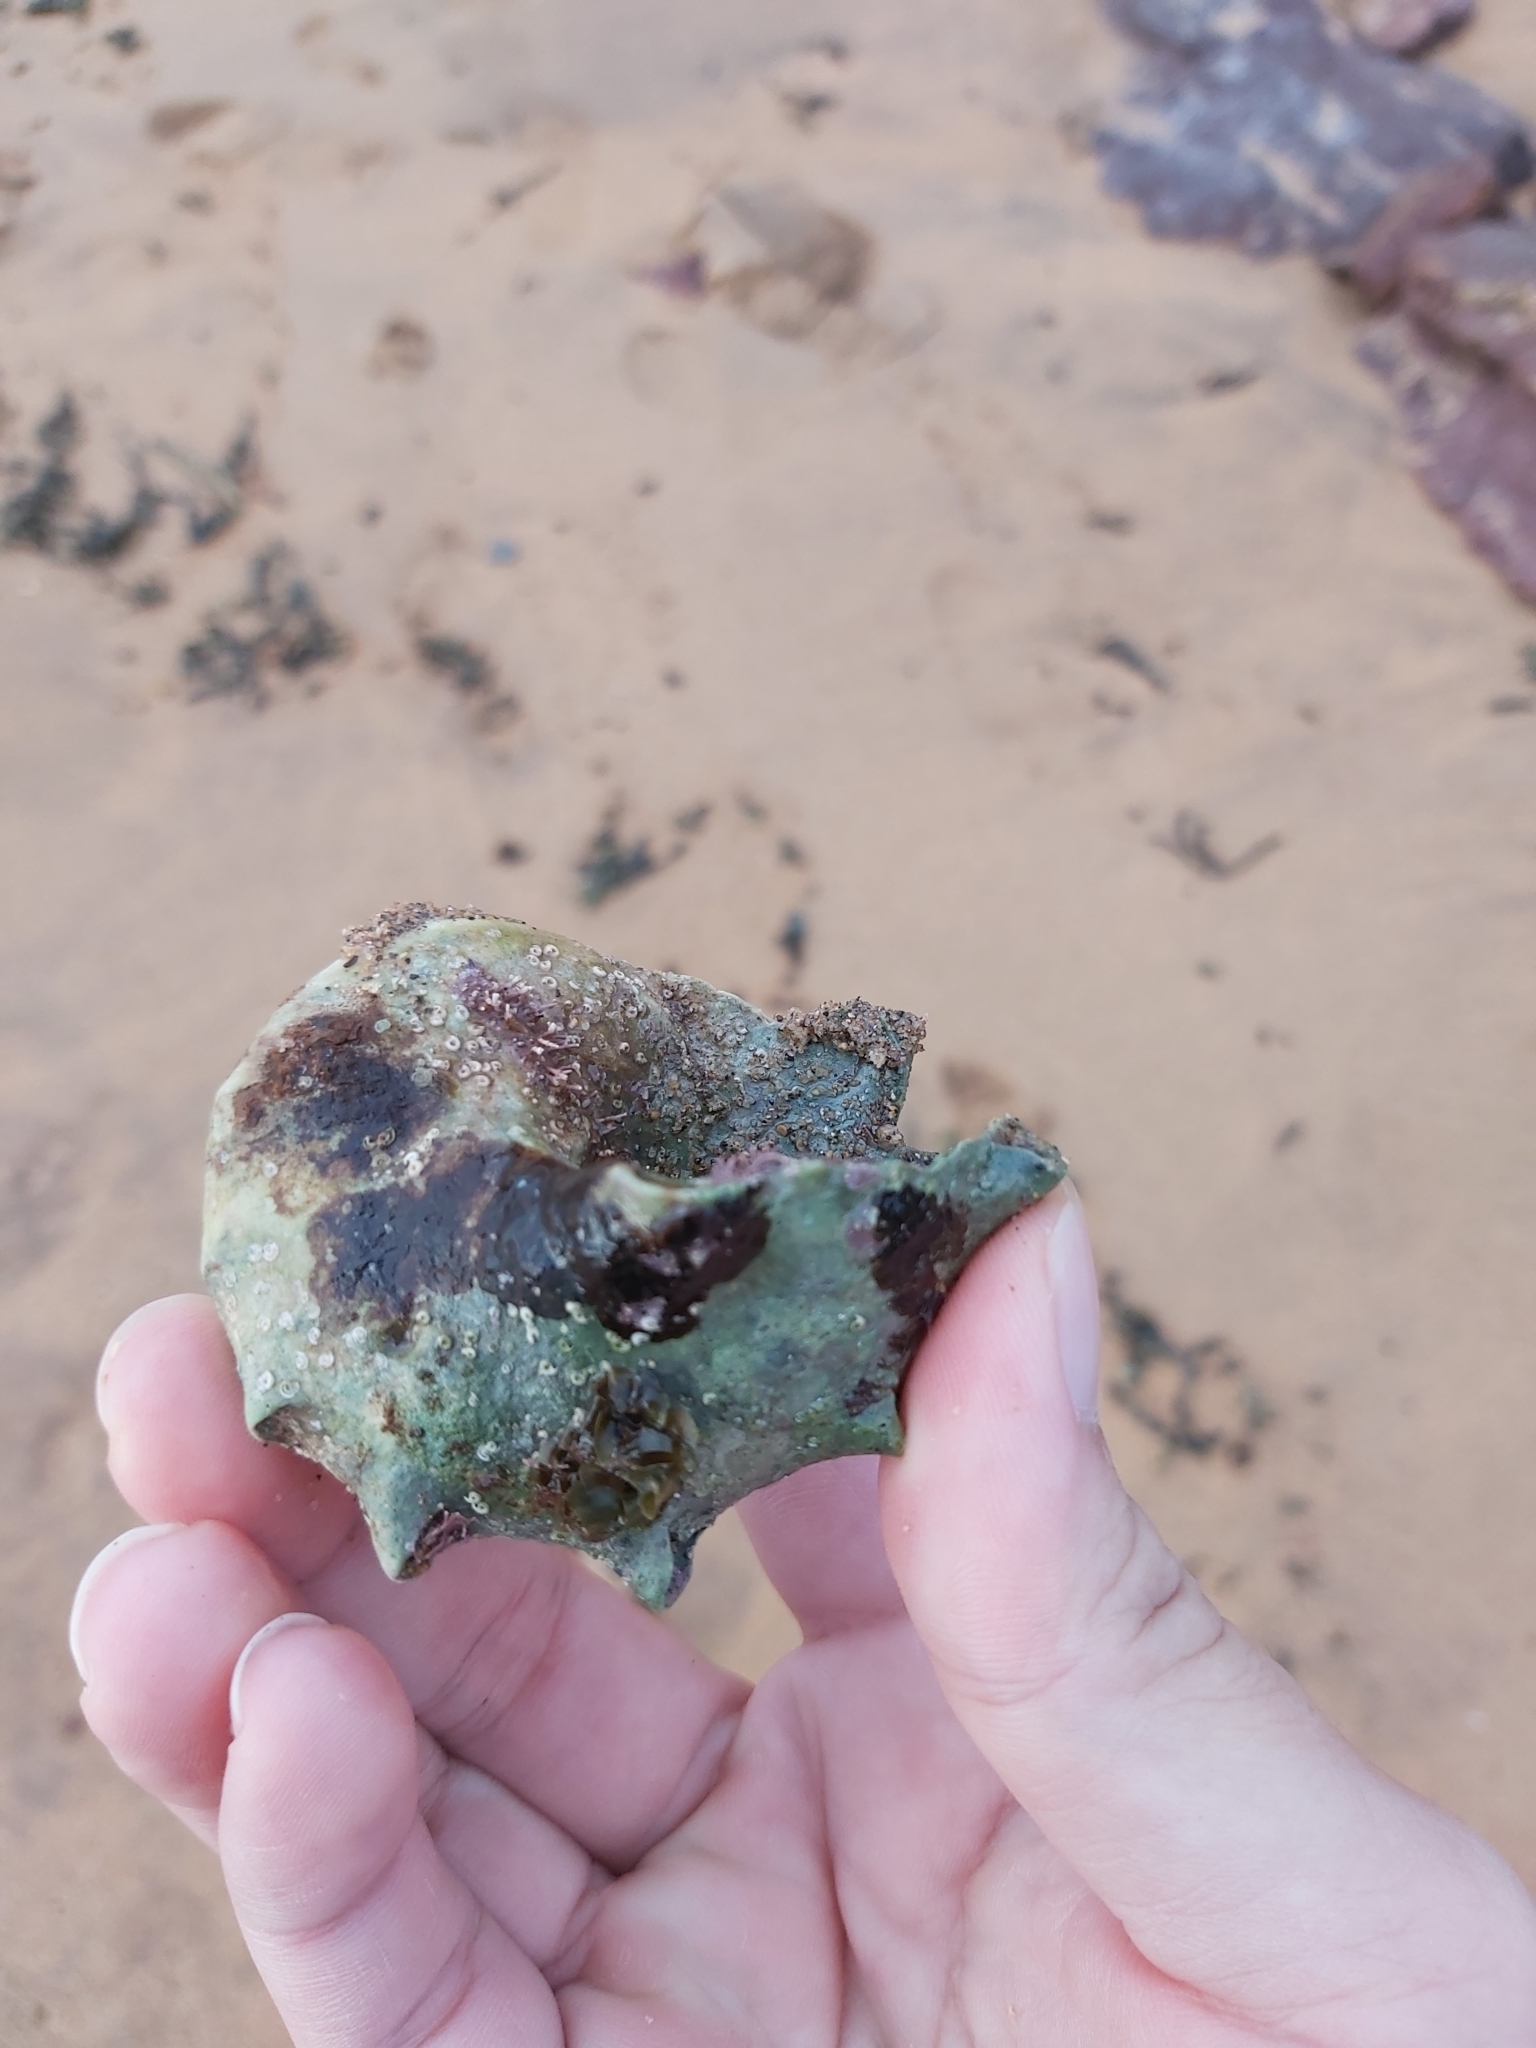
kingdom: Animalia
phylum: Mollusca
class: Gastropoda
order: Trochida
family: Turbinidae
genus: Turbo
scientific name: Turbo militaris
